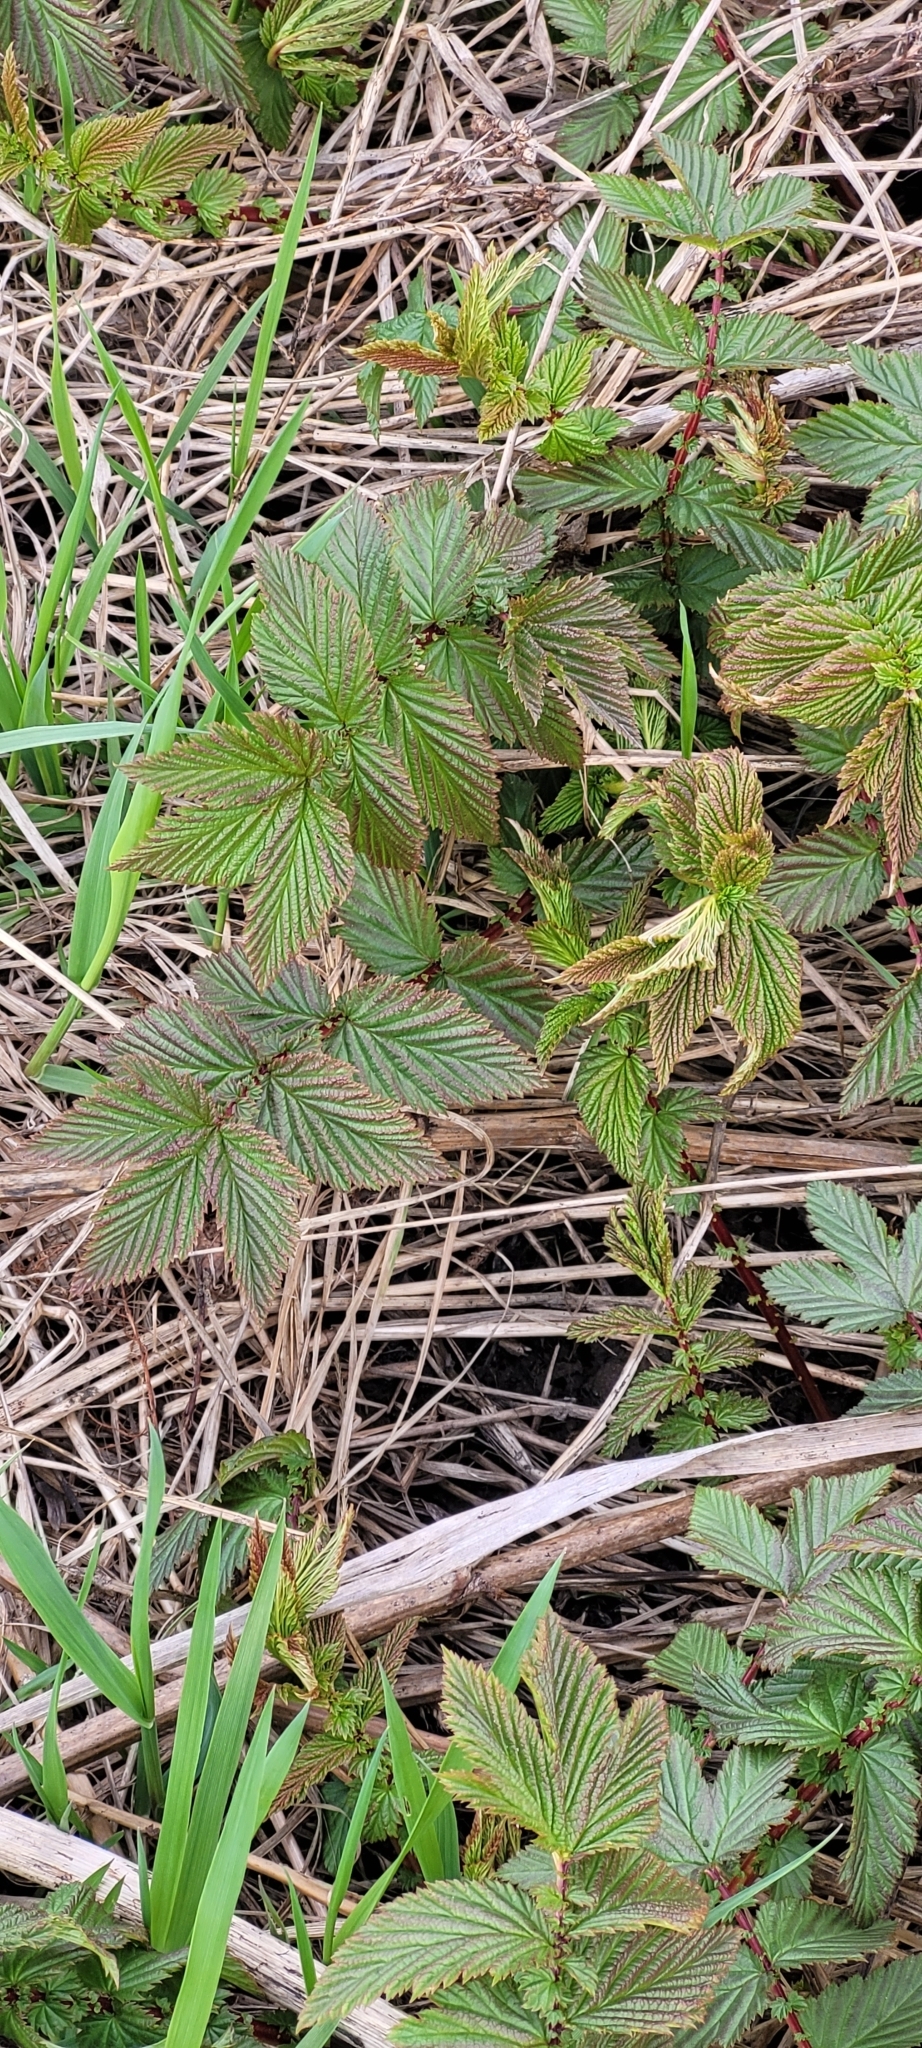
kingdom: Plantae
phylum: Tracheophyta
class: Magnoliopsida
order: Rosales
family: Rosaceae
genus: Filipendula
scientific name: Filipendula ulmaria
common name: Meadowsweet
